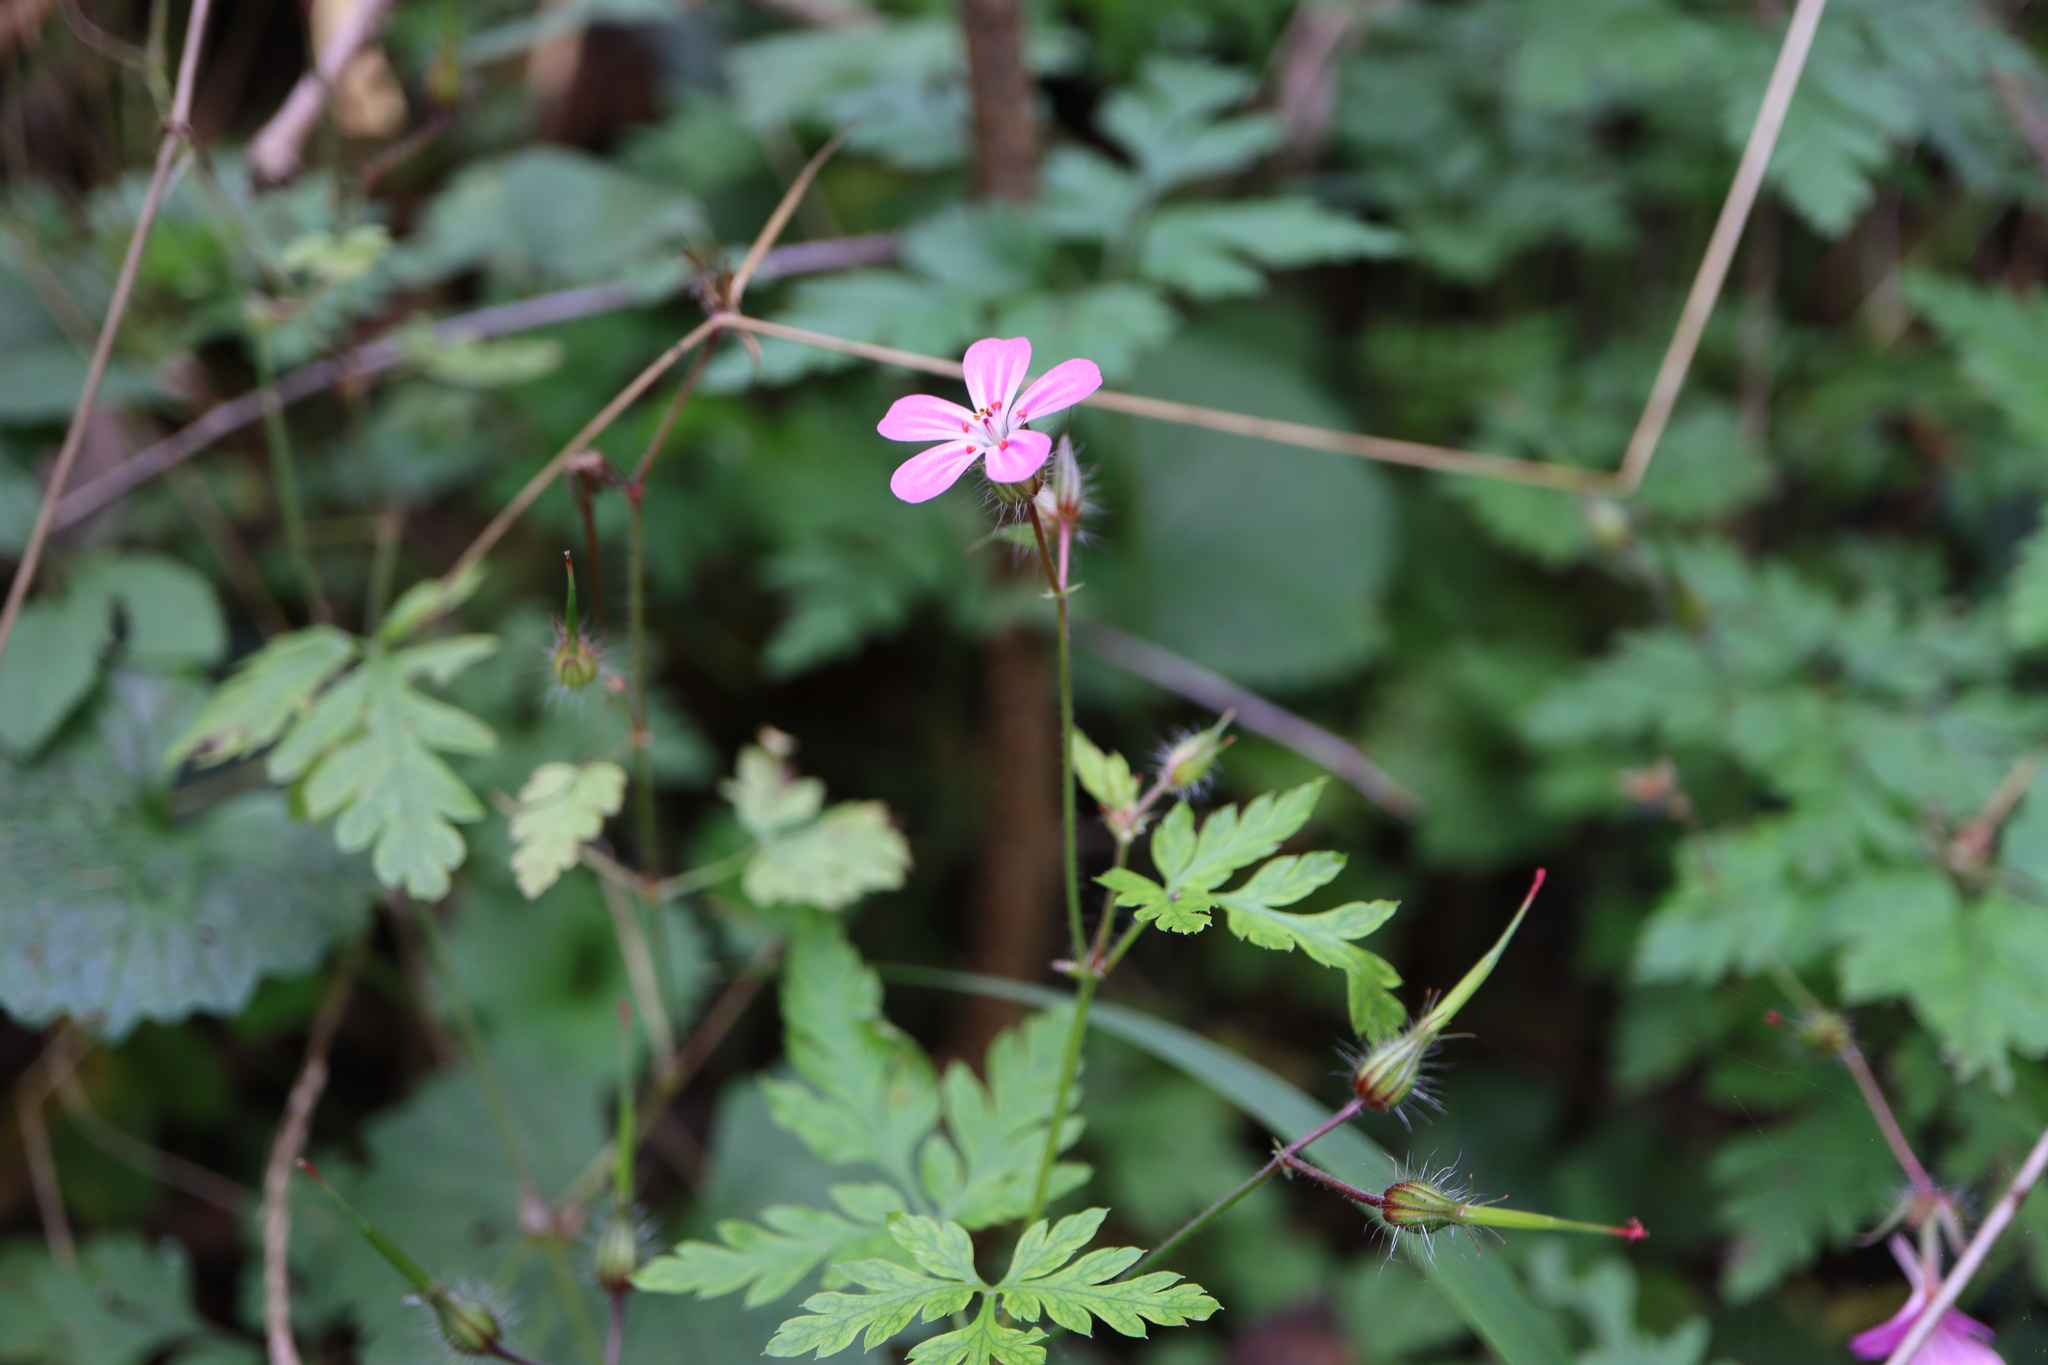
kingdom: Plantae
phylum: Tracheophyta
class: Magnoliopsida
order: Geraniales
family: Geraniaceae
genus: Geranium
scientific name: Geranium robertianum
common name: Herb-robert
